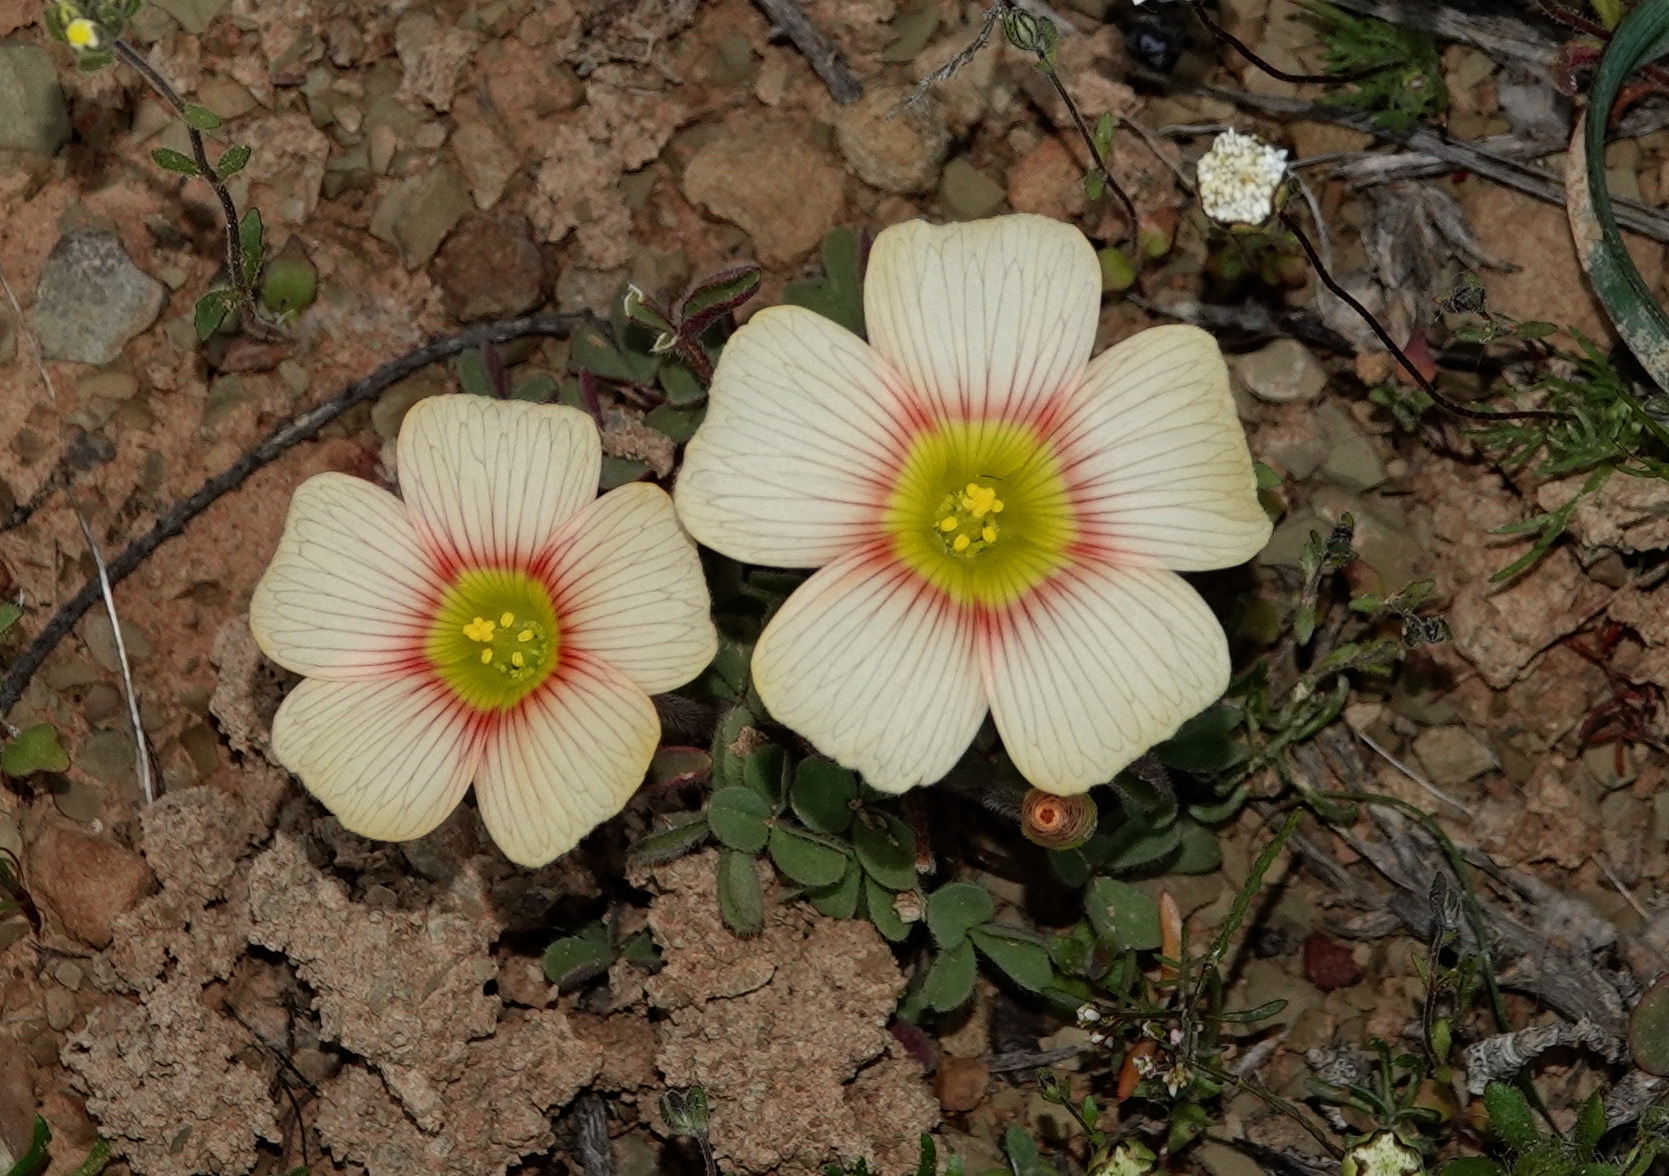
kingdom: Plantae
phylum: Tracheophyta
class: Magnoliopsida
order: Oxalidales
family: Oxalidaceae
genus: Oxalis
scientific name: Oxalis obtusa
